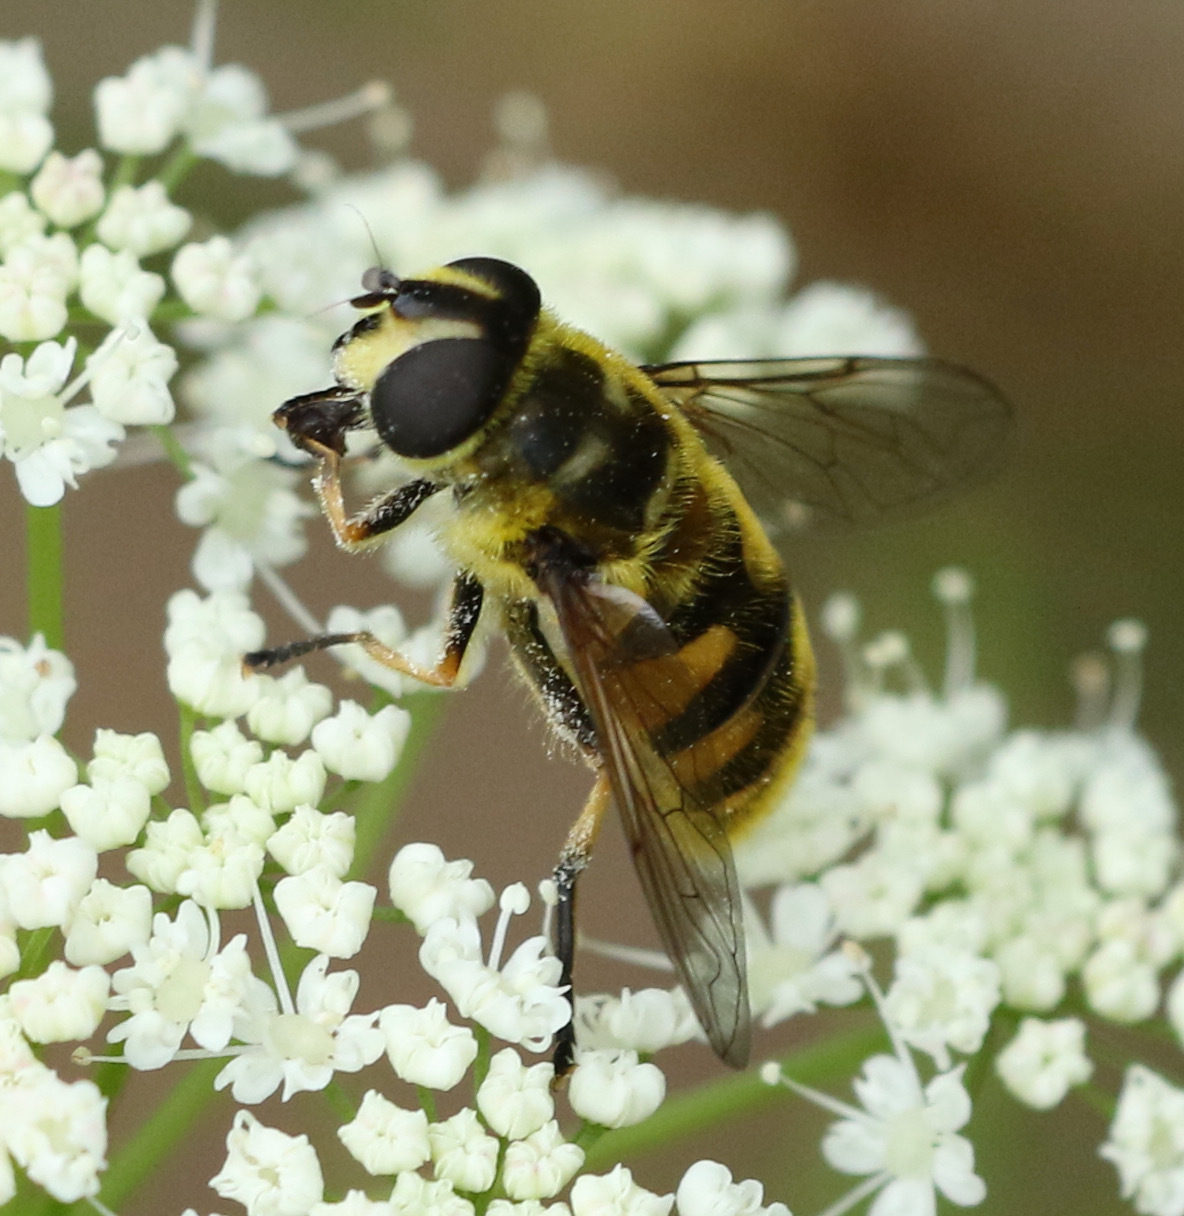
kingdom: Animalia
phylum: Arthropoda
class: Insecta
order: Diptera
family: Syrphidae
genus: Myathropa
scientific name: Myathropa florea
